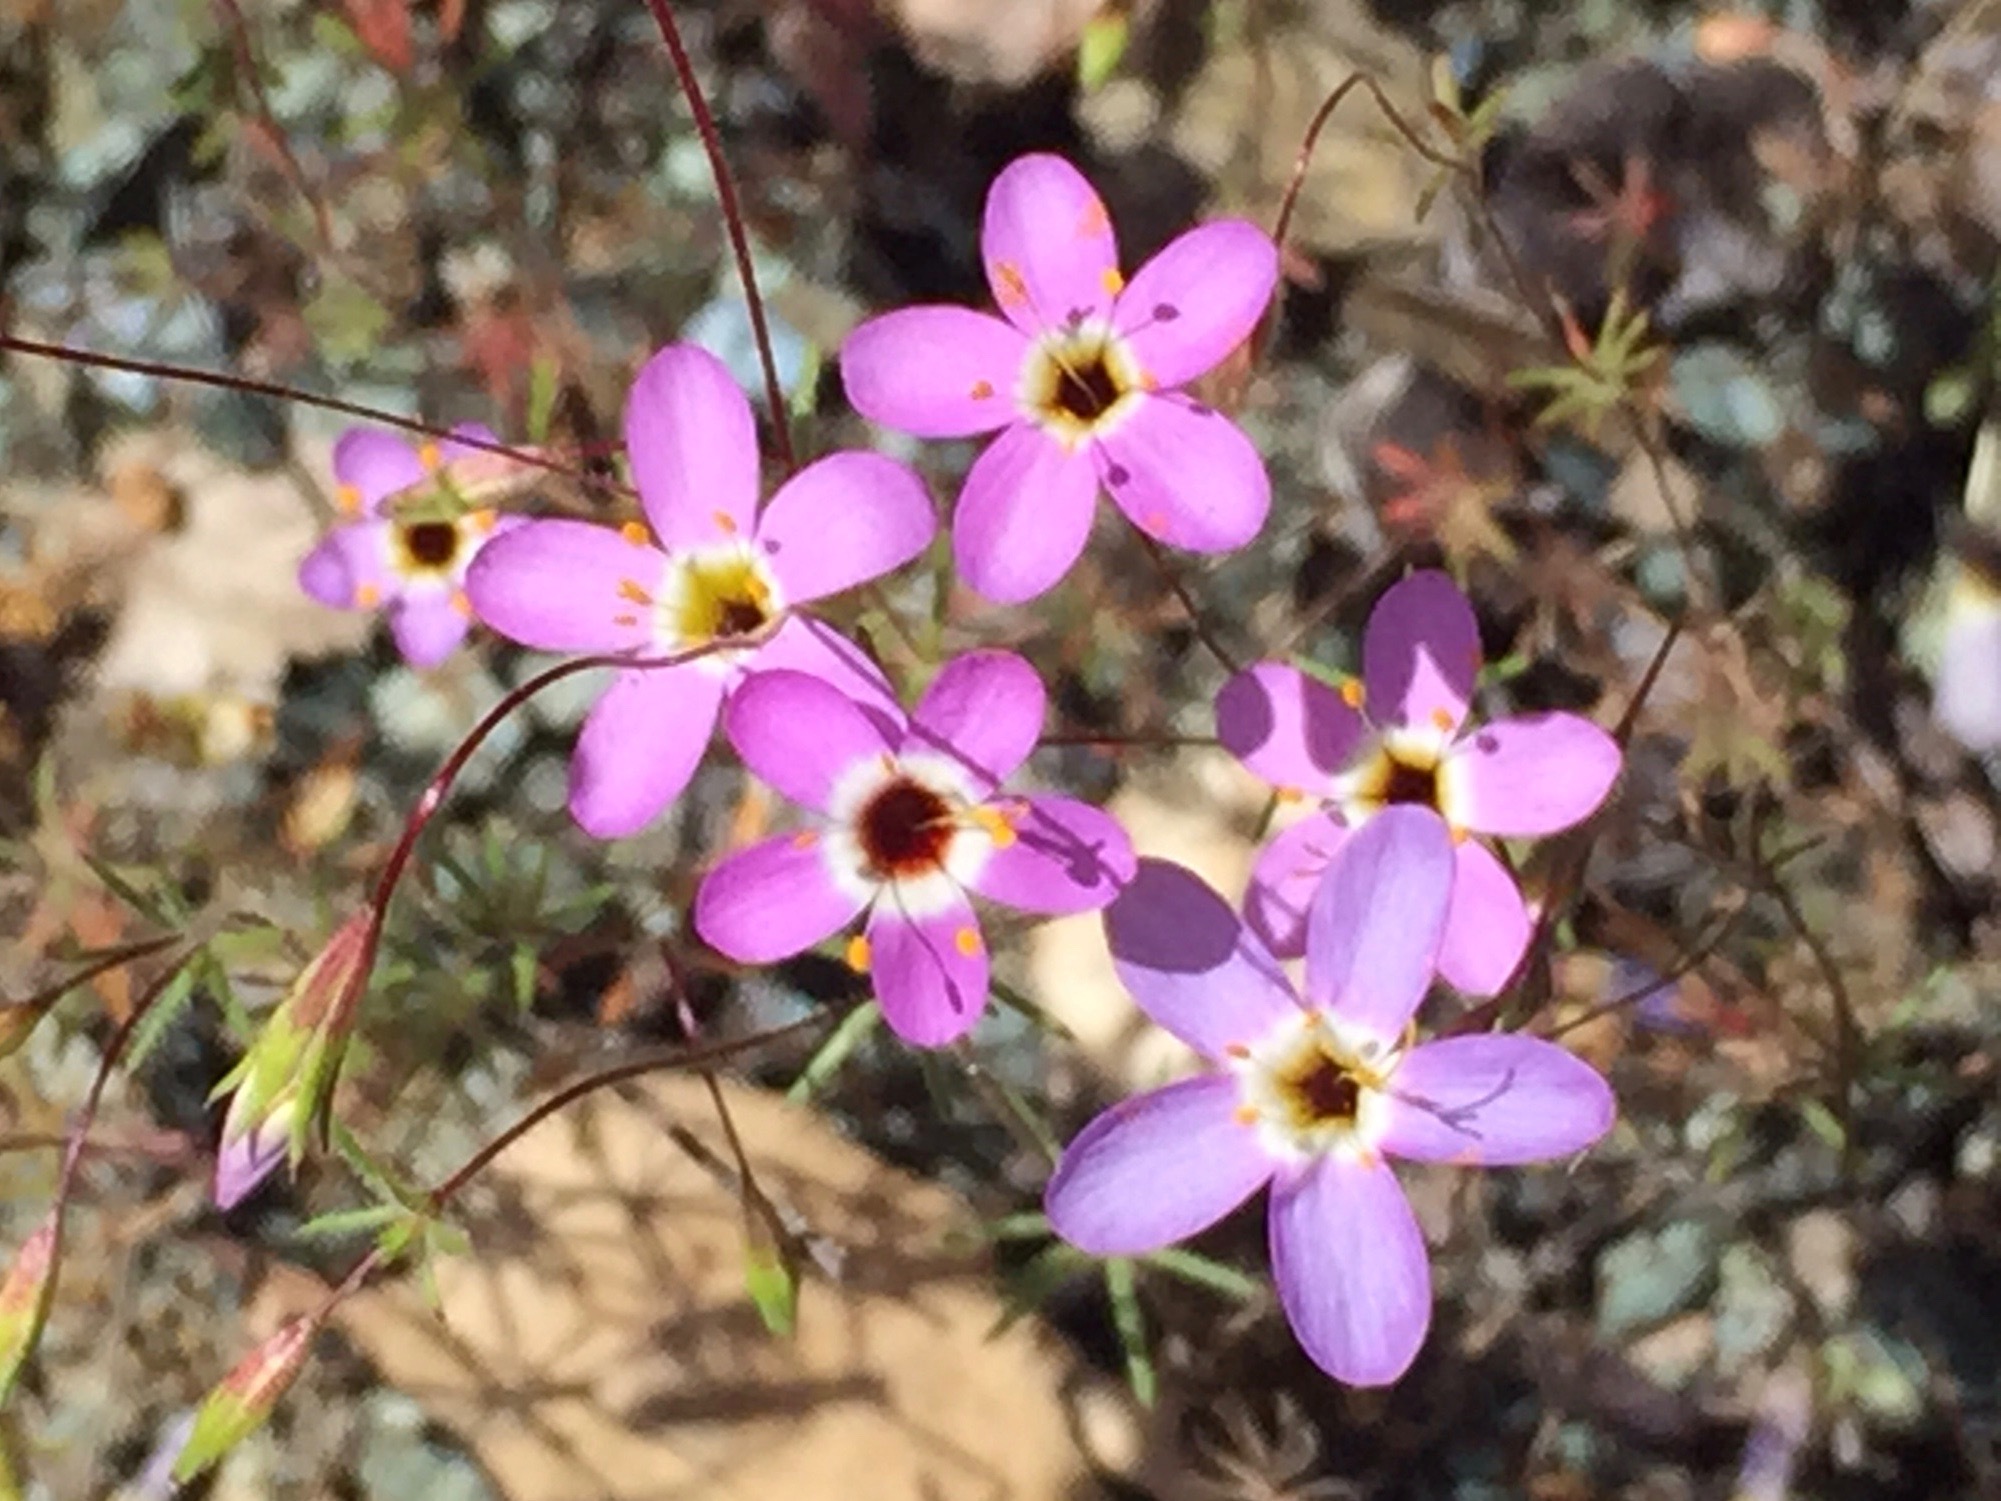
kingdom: Plantae
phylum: Tracheophyta
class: Magnoliopsida
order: Ericales
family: Polemoniaceae
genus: Leptosiphon
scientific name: Leptosiphon ambiguus
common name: Serpentine linanthus
